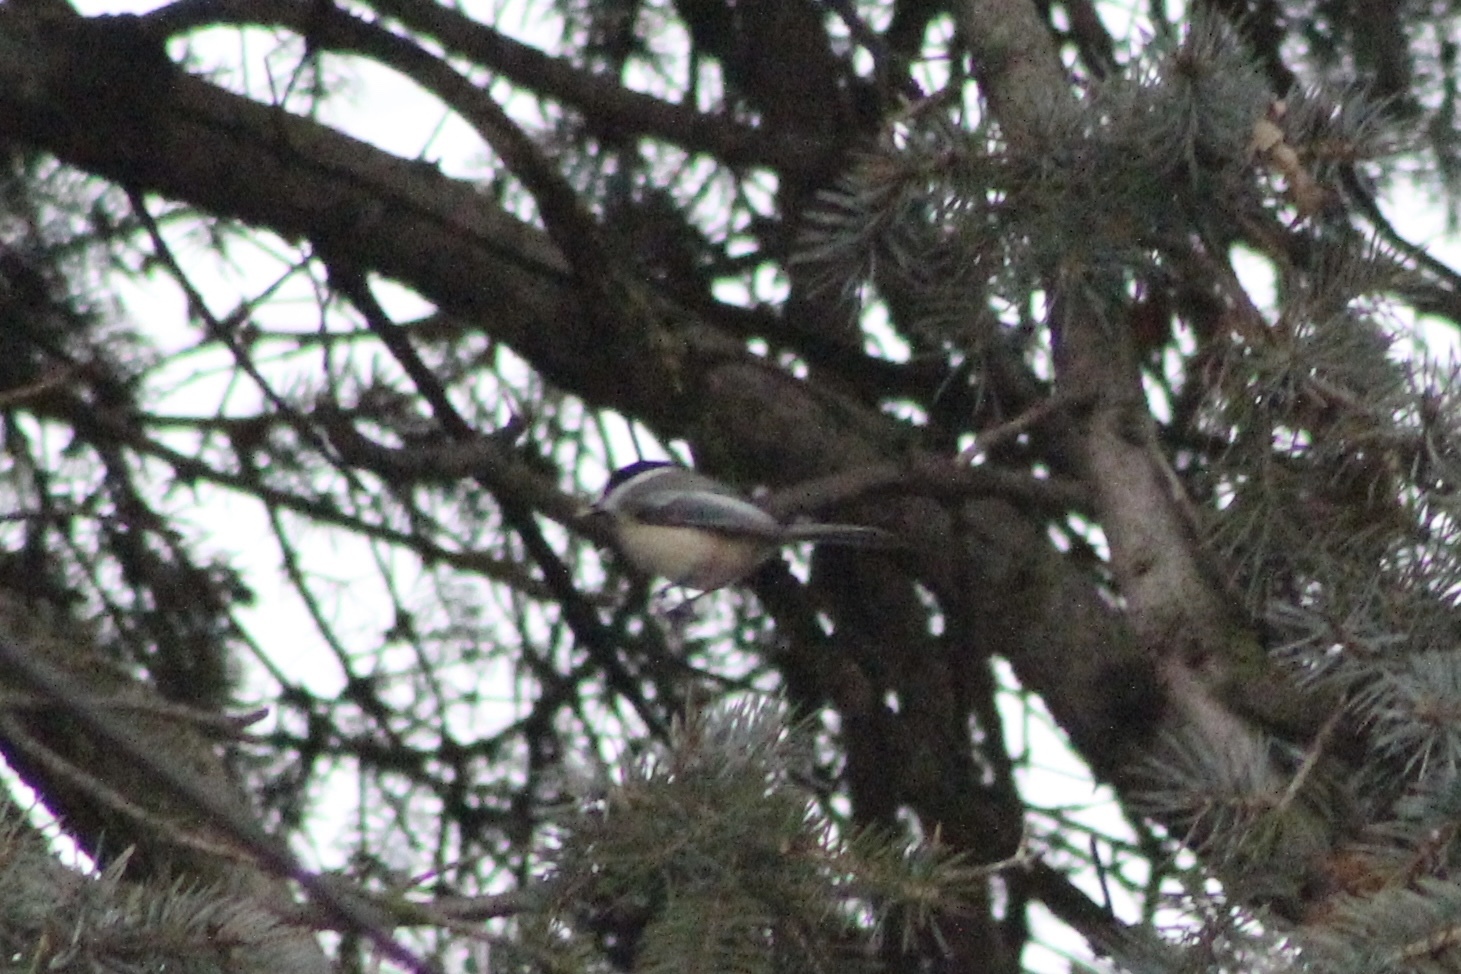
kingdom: Animalia
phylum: Chordata
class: Aves
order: Passeriformes
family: Paridae
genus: Poecile
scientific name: Poecile atricapillus
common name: Black-capped chickadee
